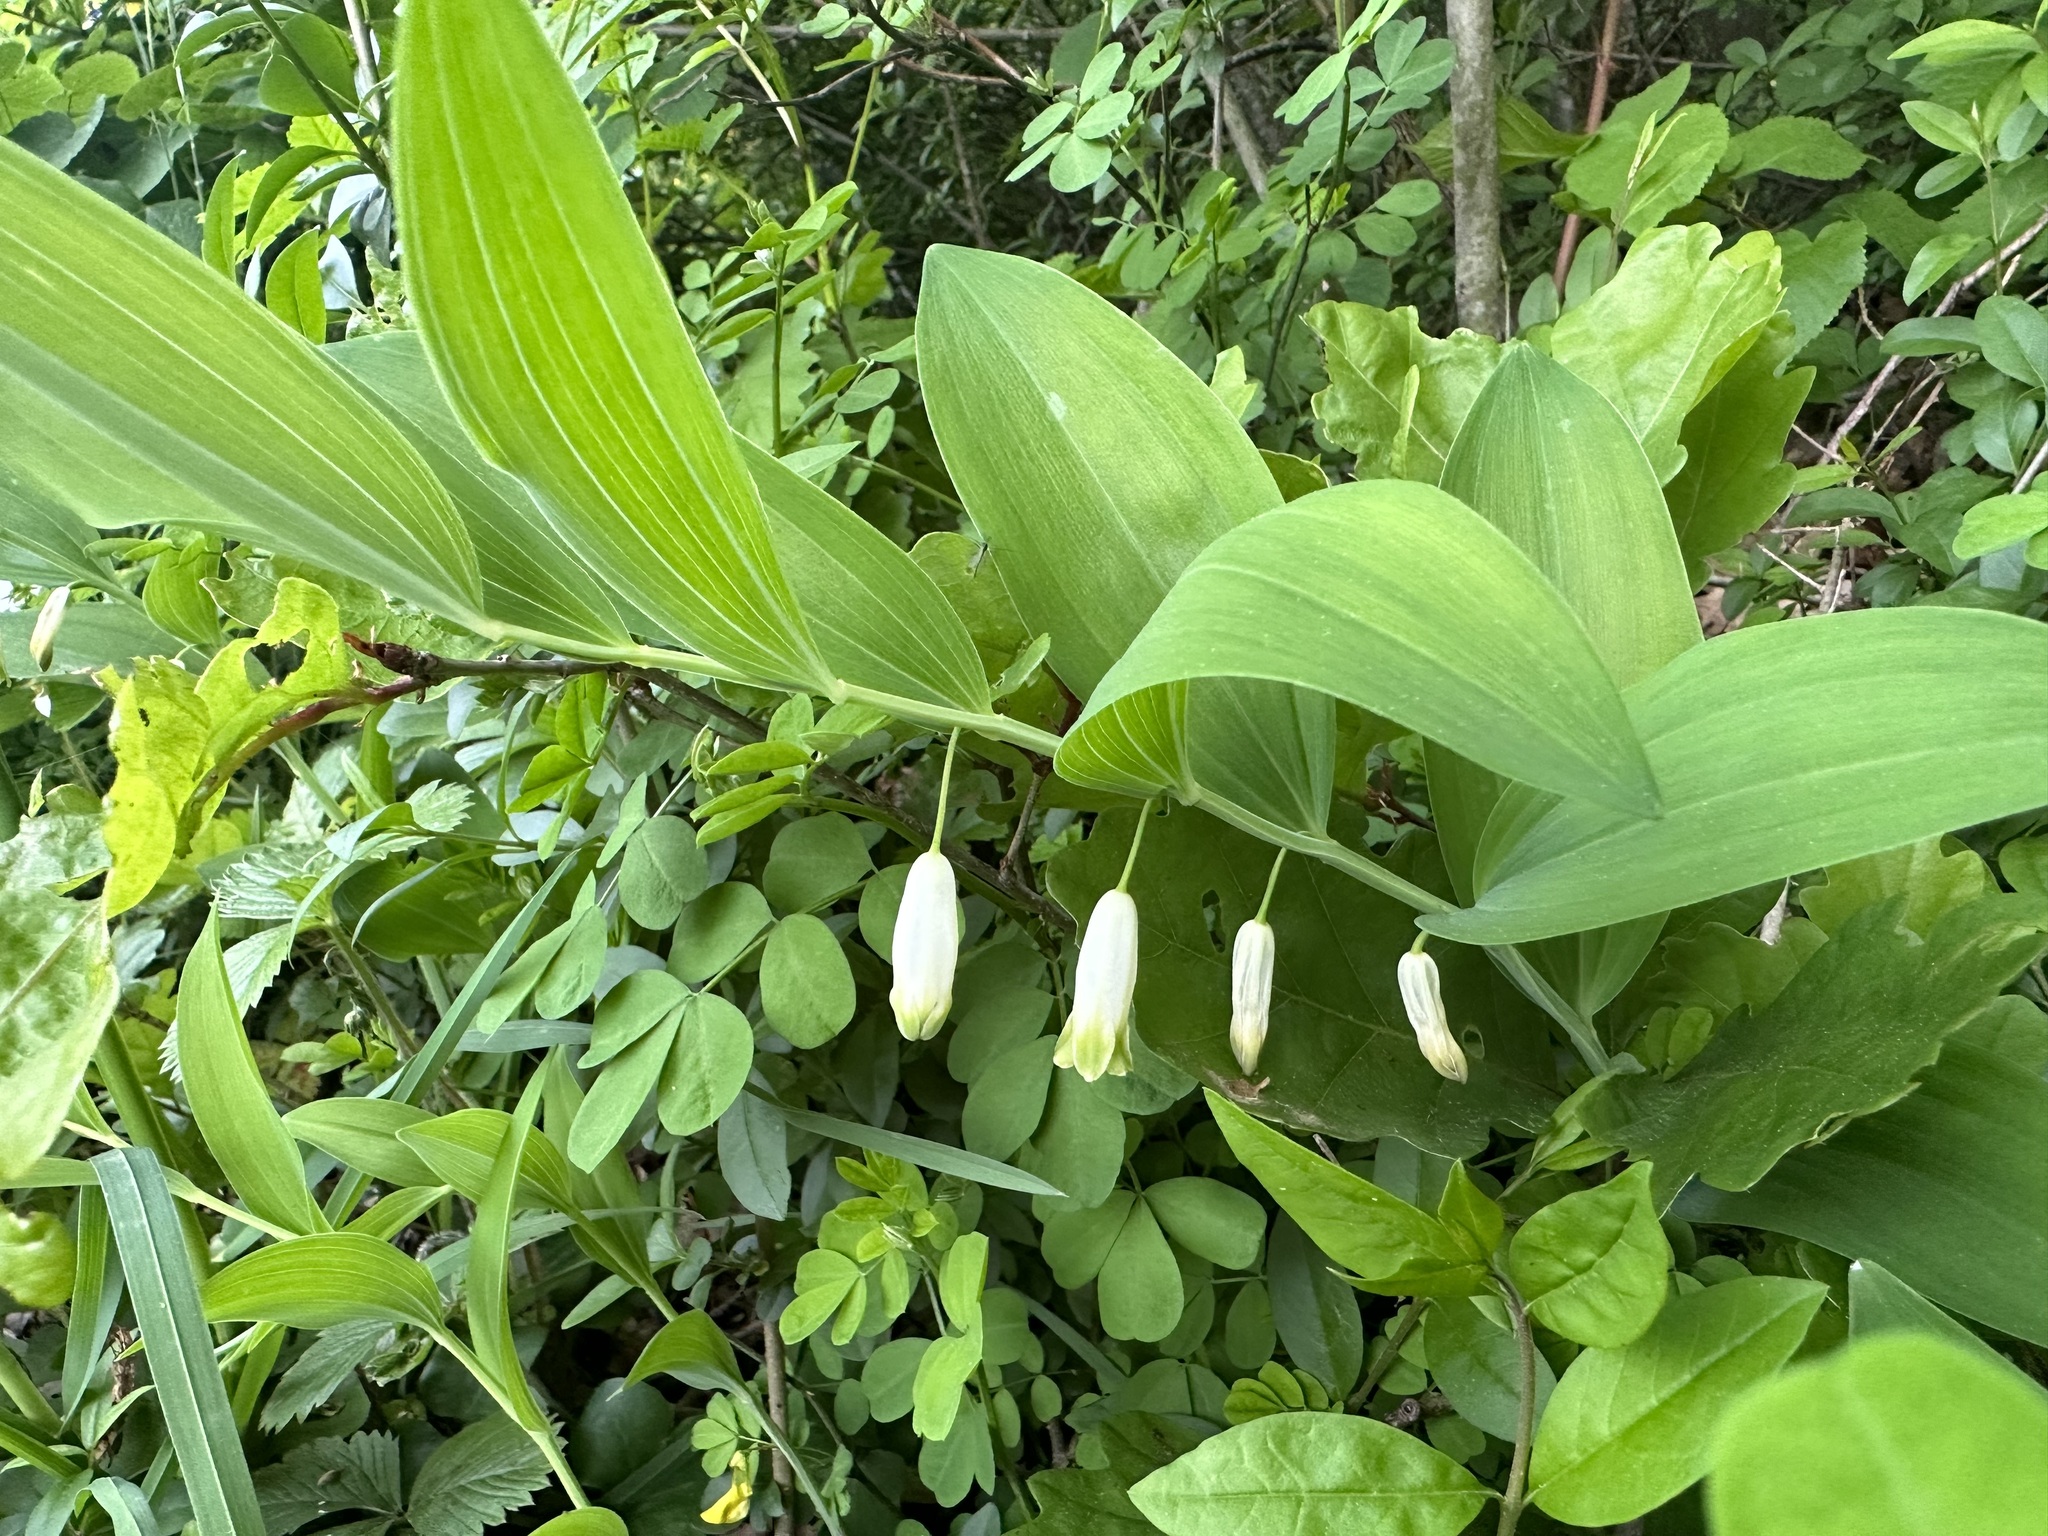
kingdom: Plantae
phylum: Tracheophyta
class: Liliopsida
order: Asparagales
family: Asparagaceae
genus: Polygonatum
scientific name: Polygonatum odoratum
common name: Angular solomon's-seal
